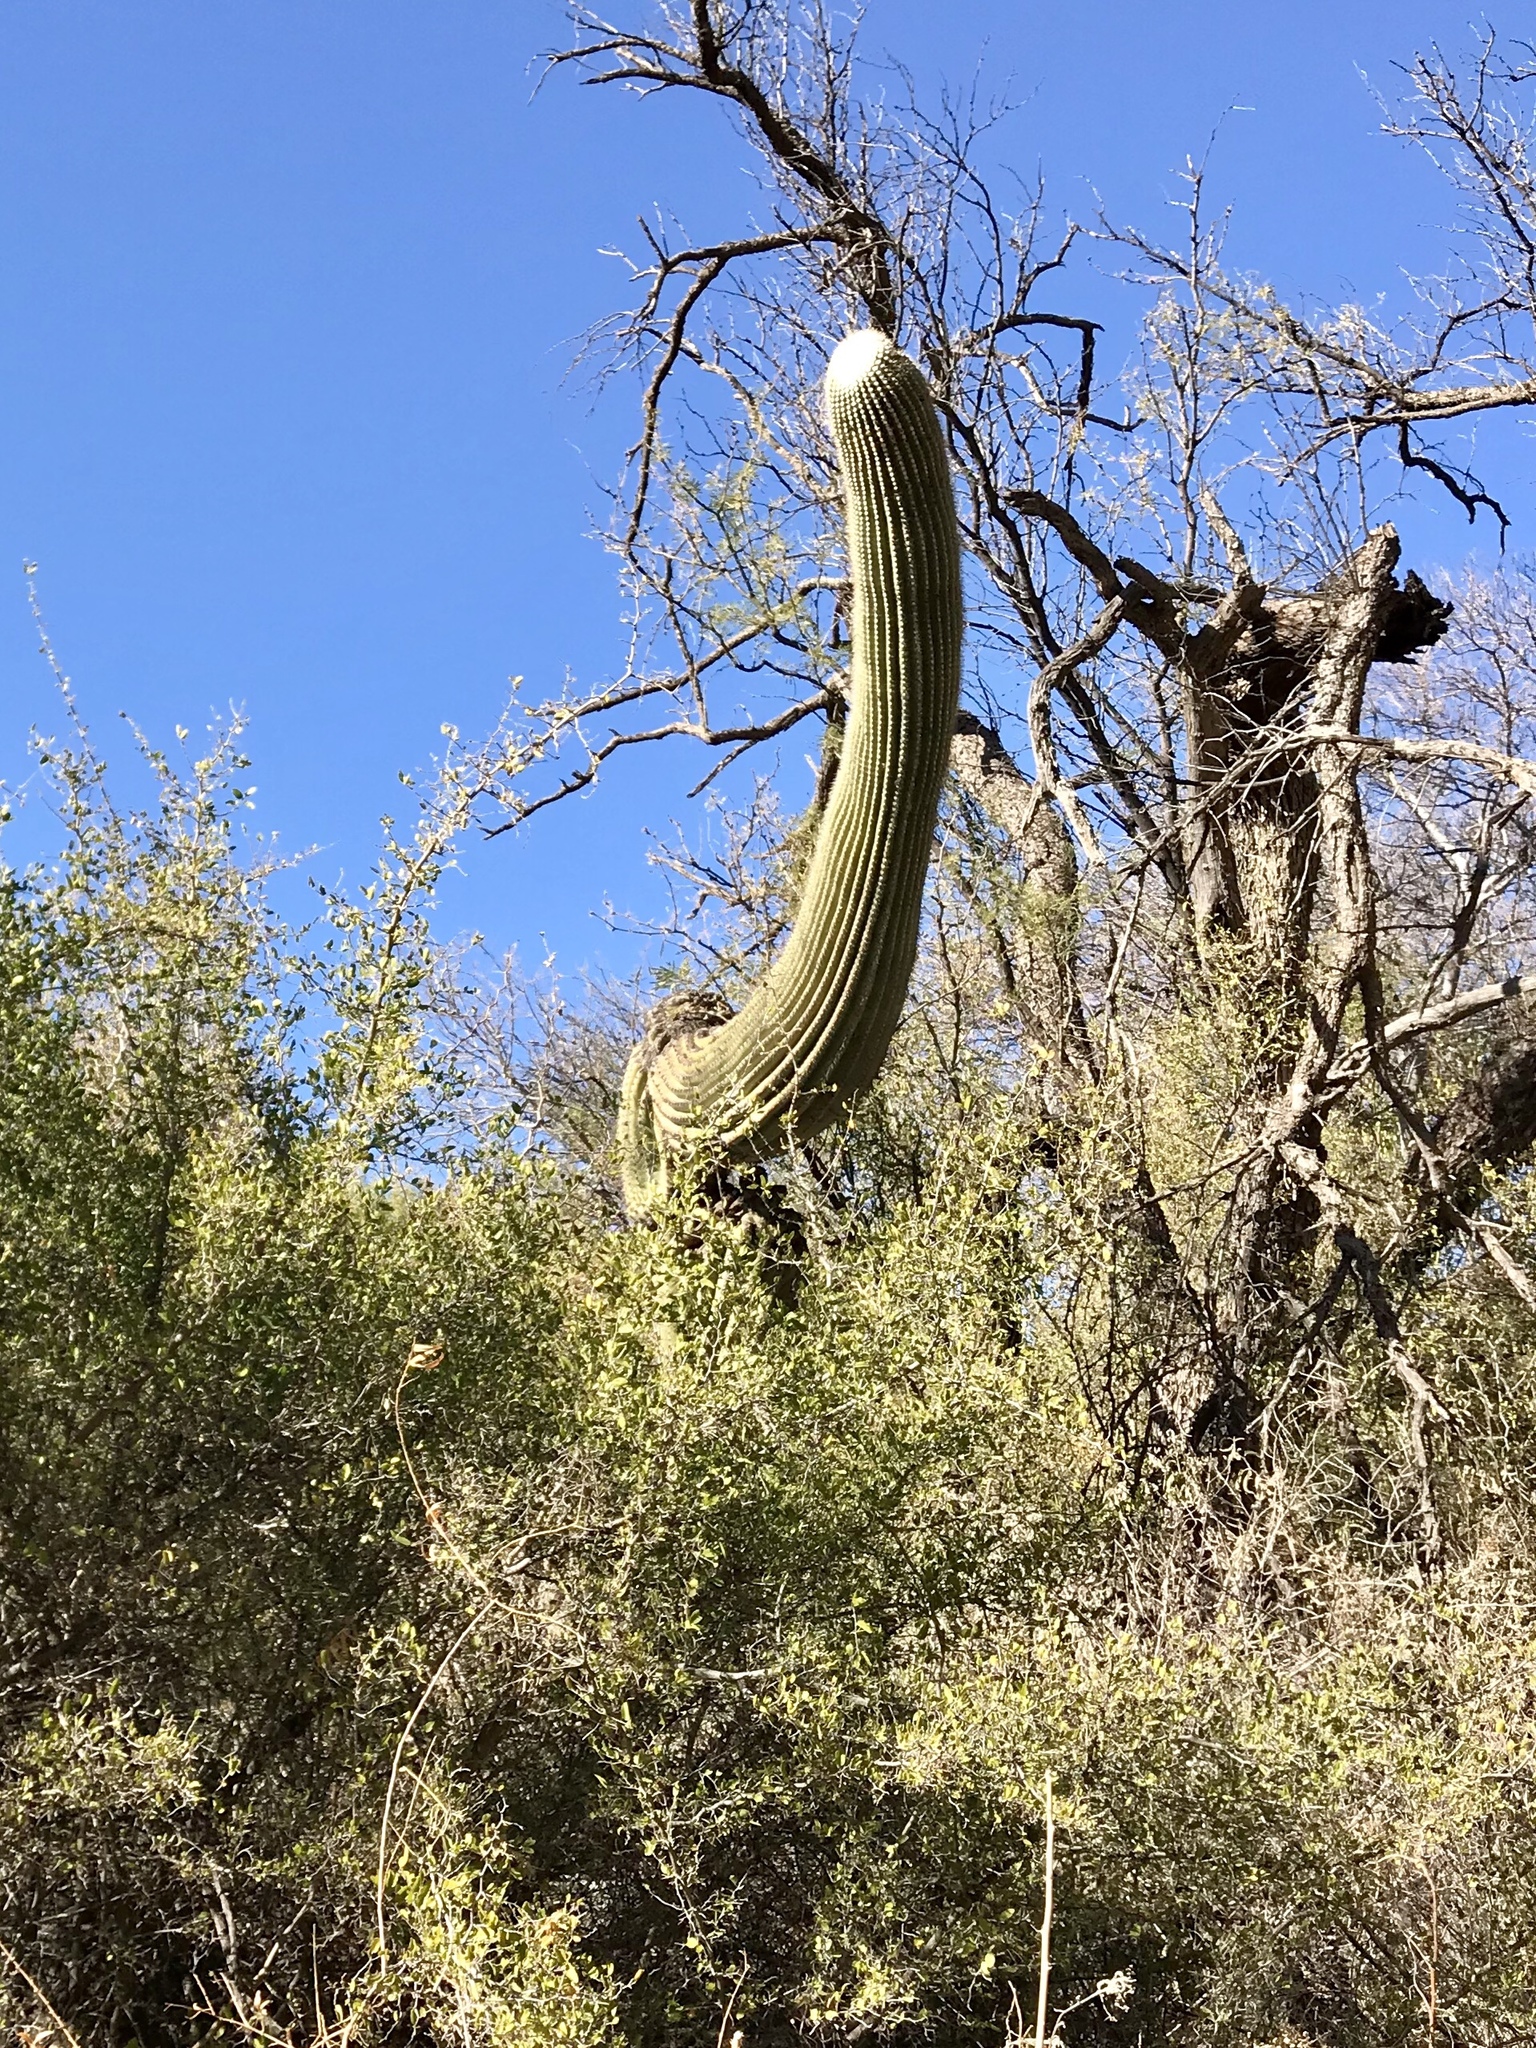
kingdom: Plantae
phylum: Tracheophyta
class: Magnoliopsida
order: Caryophyllales
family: Cactaceae
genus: Carnegiea
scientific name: Carnegiea gigantea
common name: Saguaro
